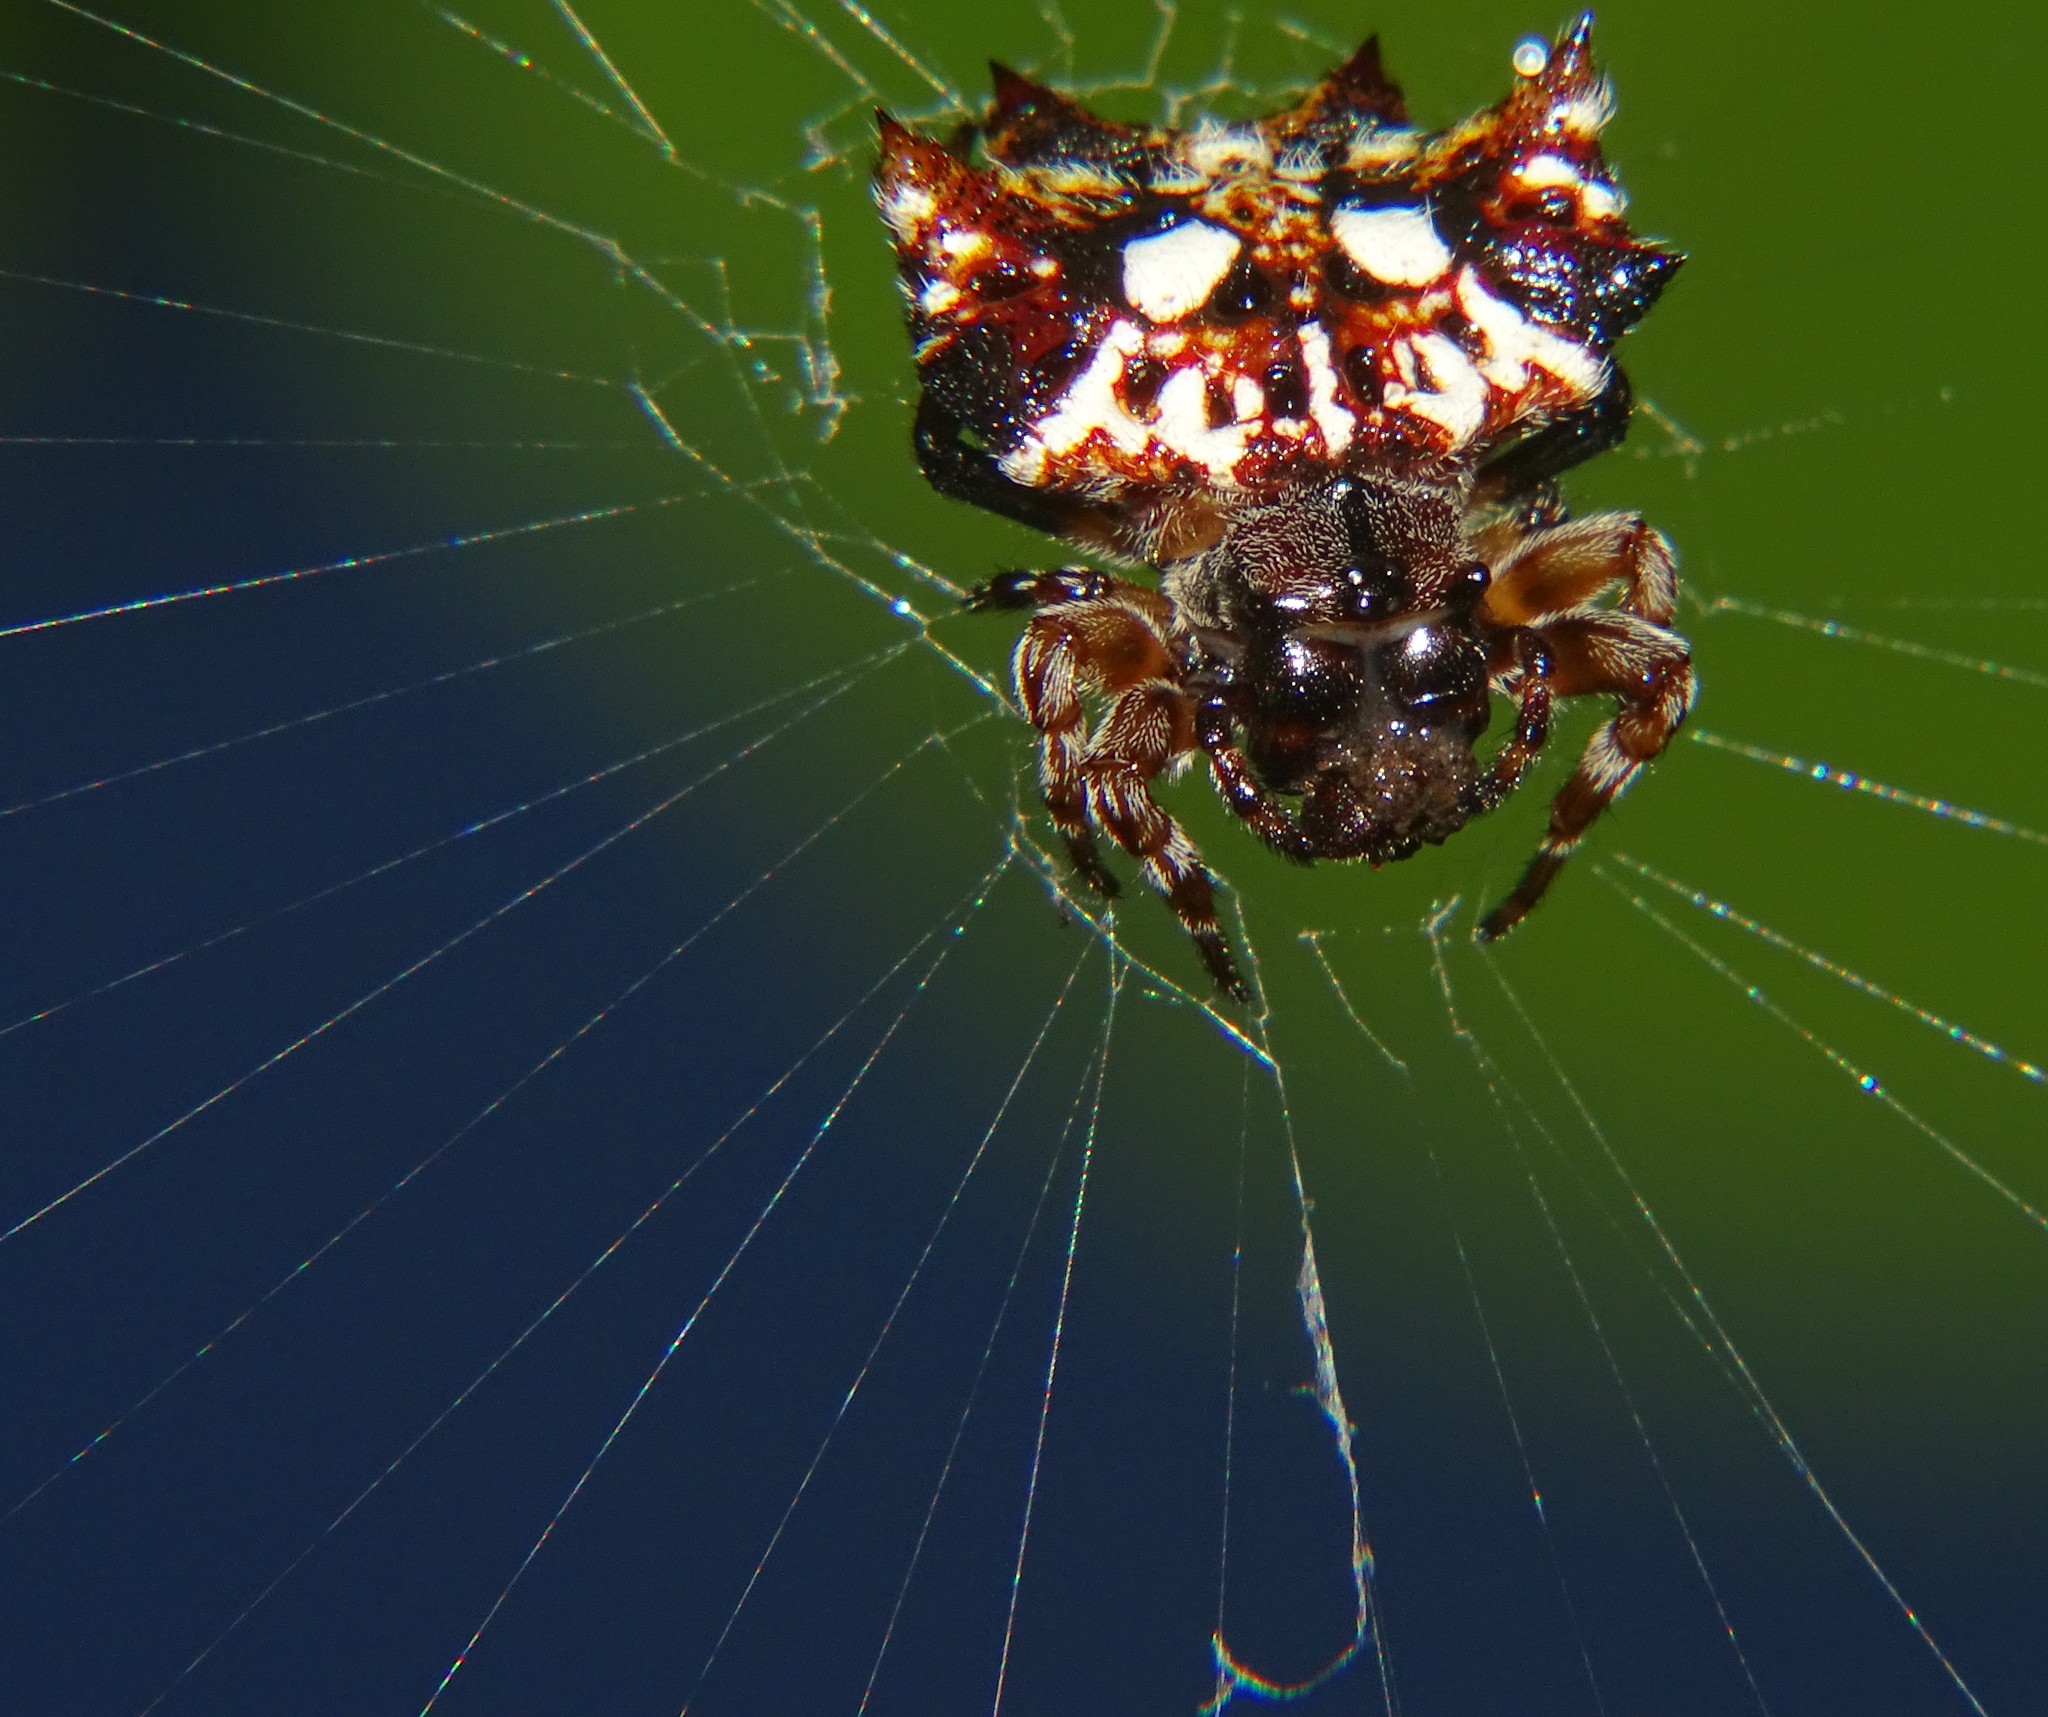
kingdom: Animalia
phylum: Arthropoda
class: Arachnida
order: Araneae
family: Araneidae
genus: Thelacantha
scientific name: Thelacantha brevispina
